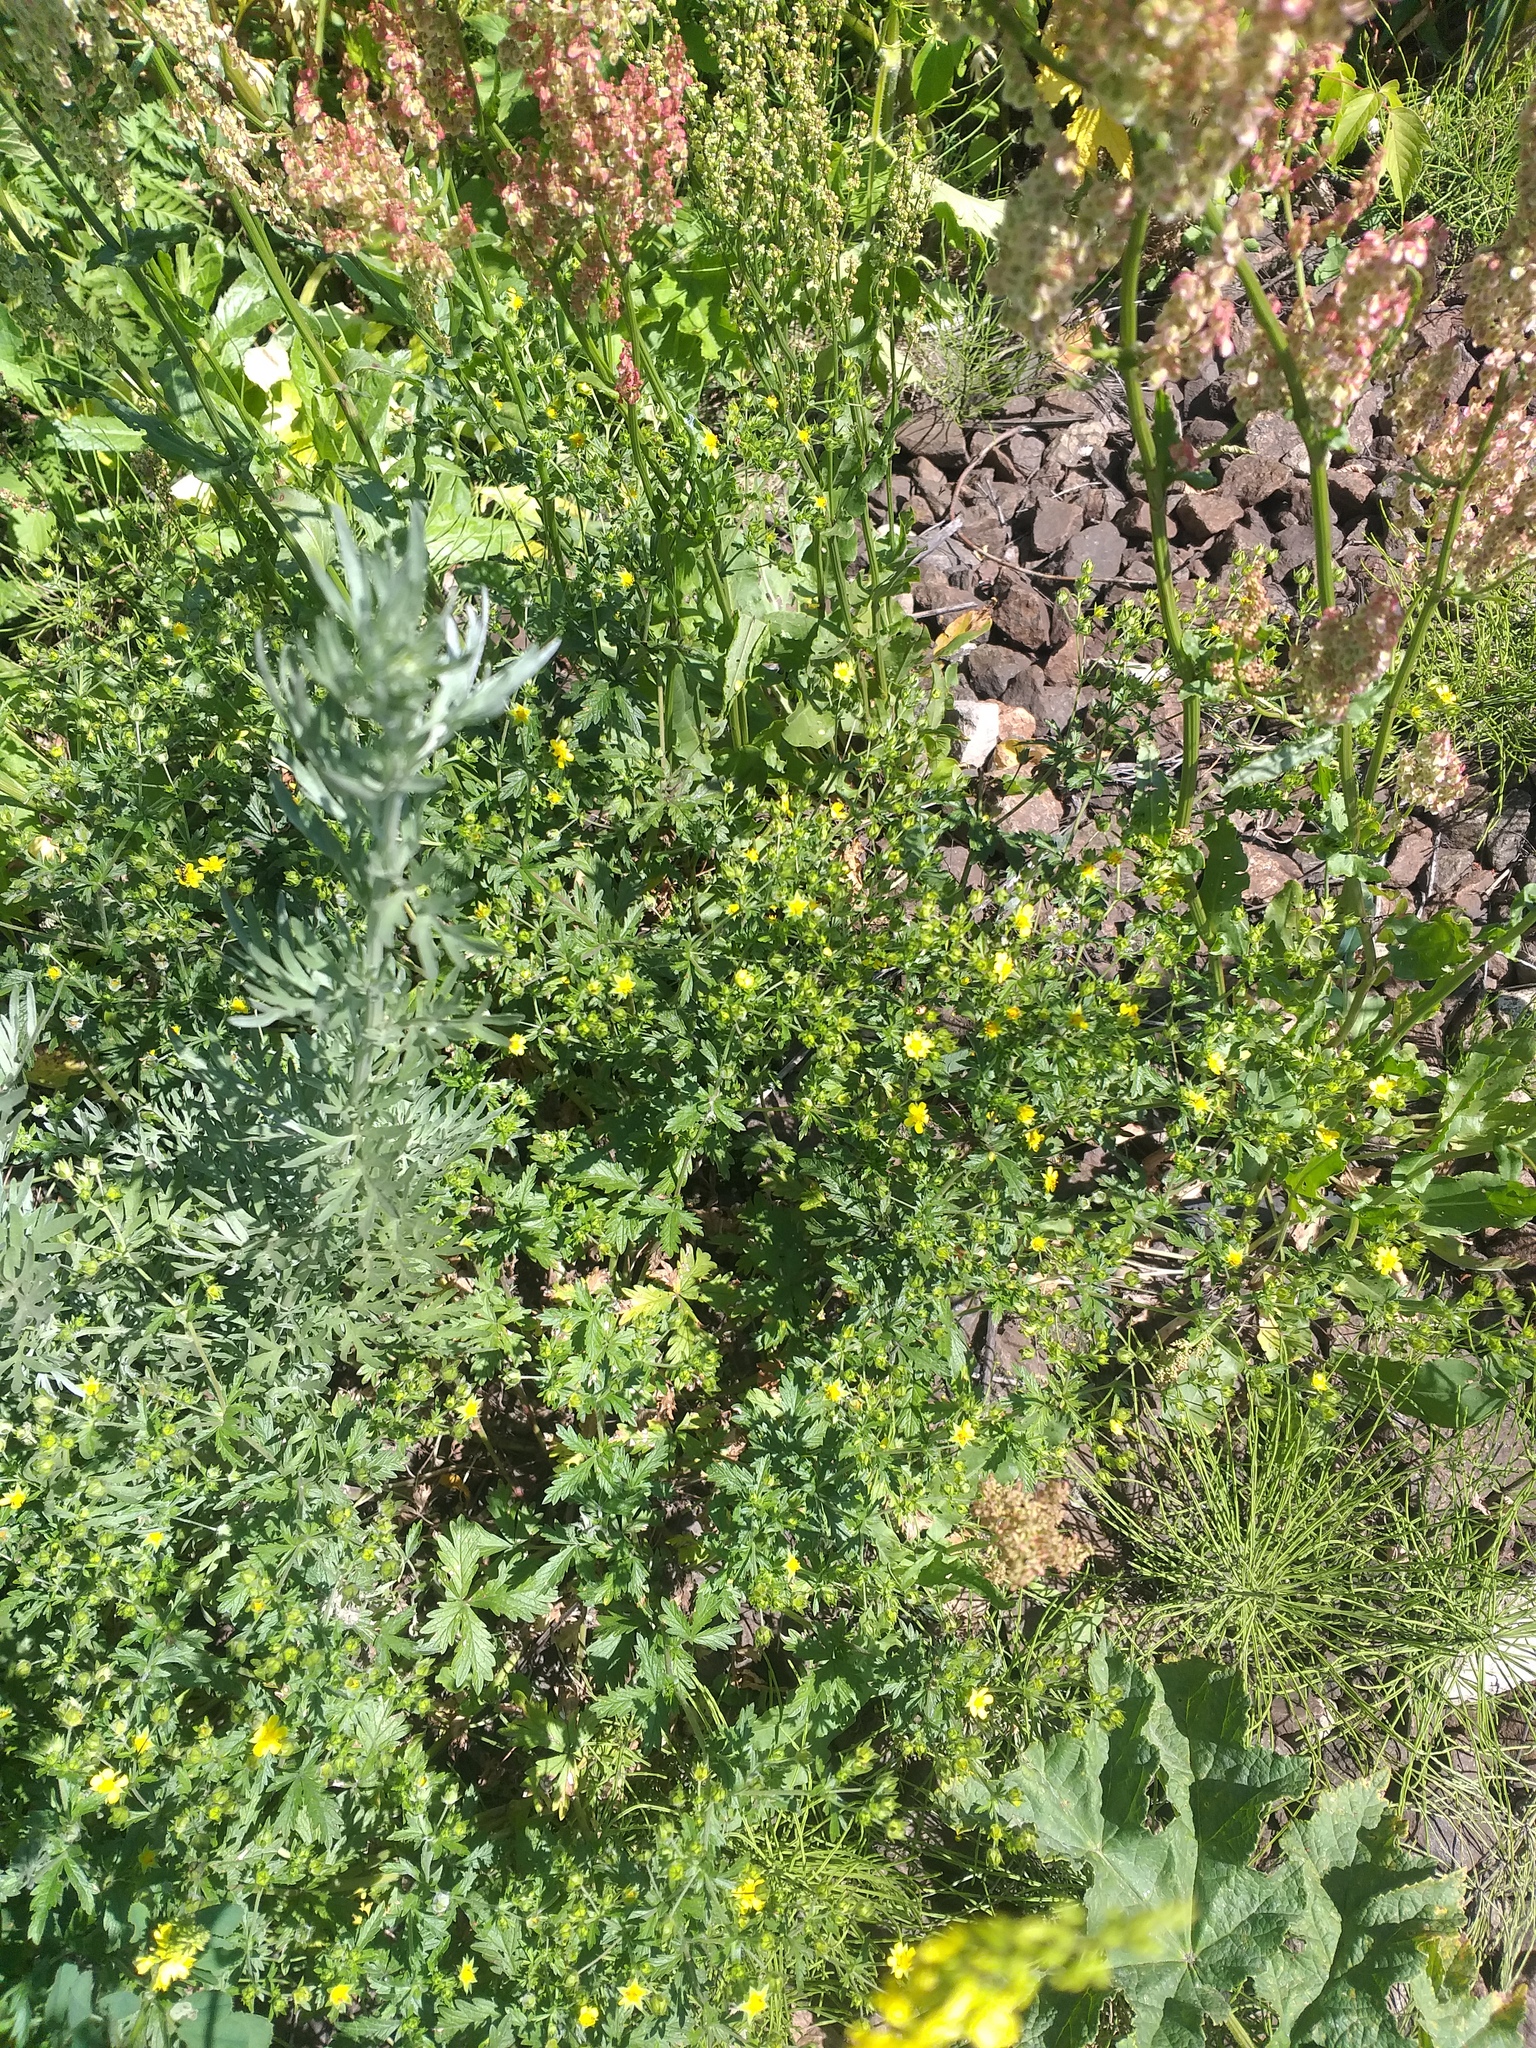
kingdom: Plantae
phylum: Tracheophyta
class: Magnoliopsida
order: Rosales
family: Rosaceae
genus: Potentilla
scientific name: Potentilla intermedia
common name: Downy cinquefoil
